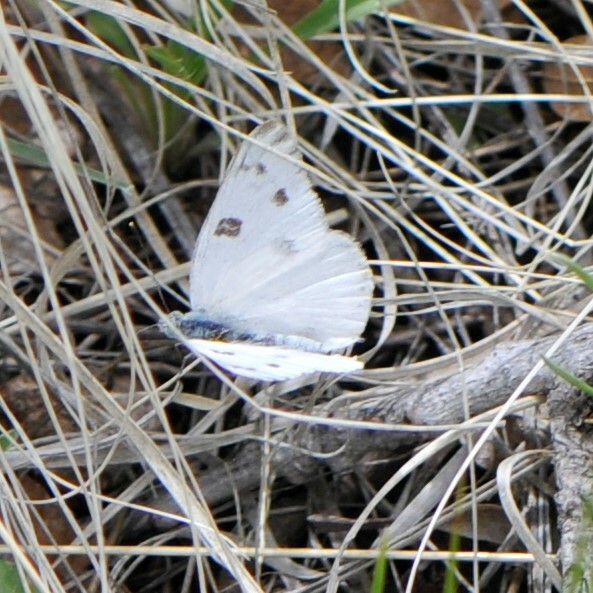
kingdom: Animalia
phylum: Arthropoda
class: Insecta
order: Lepidoptera
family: Pieridae
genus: Pontia
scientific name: Pontia protodice
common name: Checkered white
